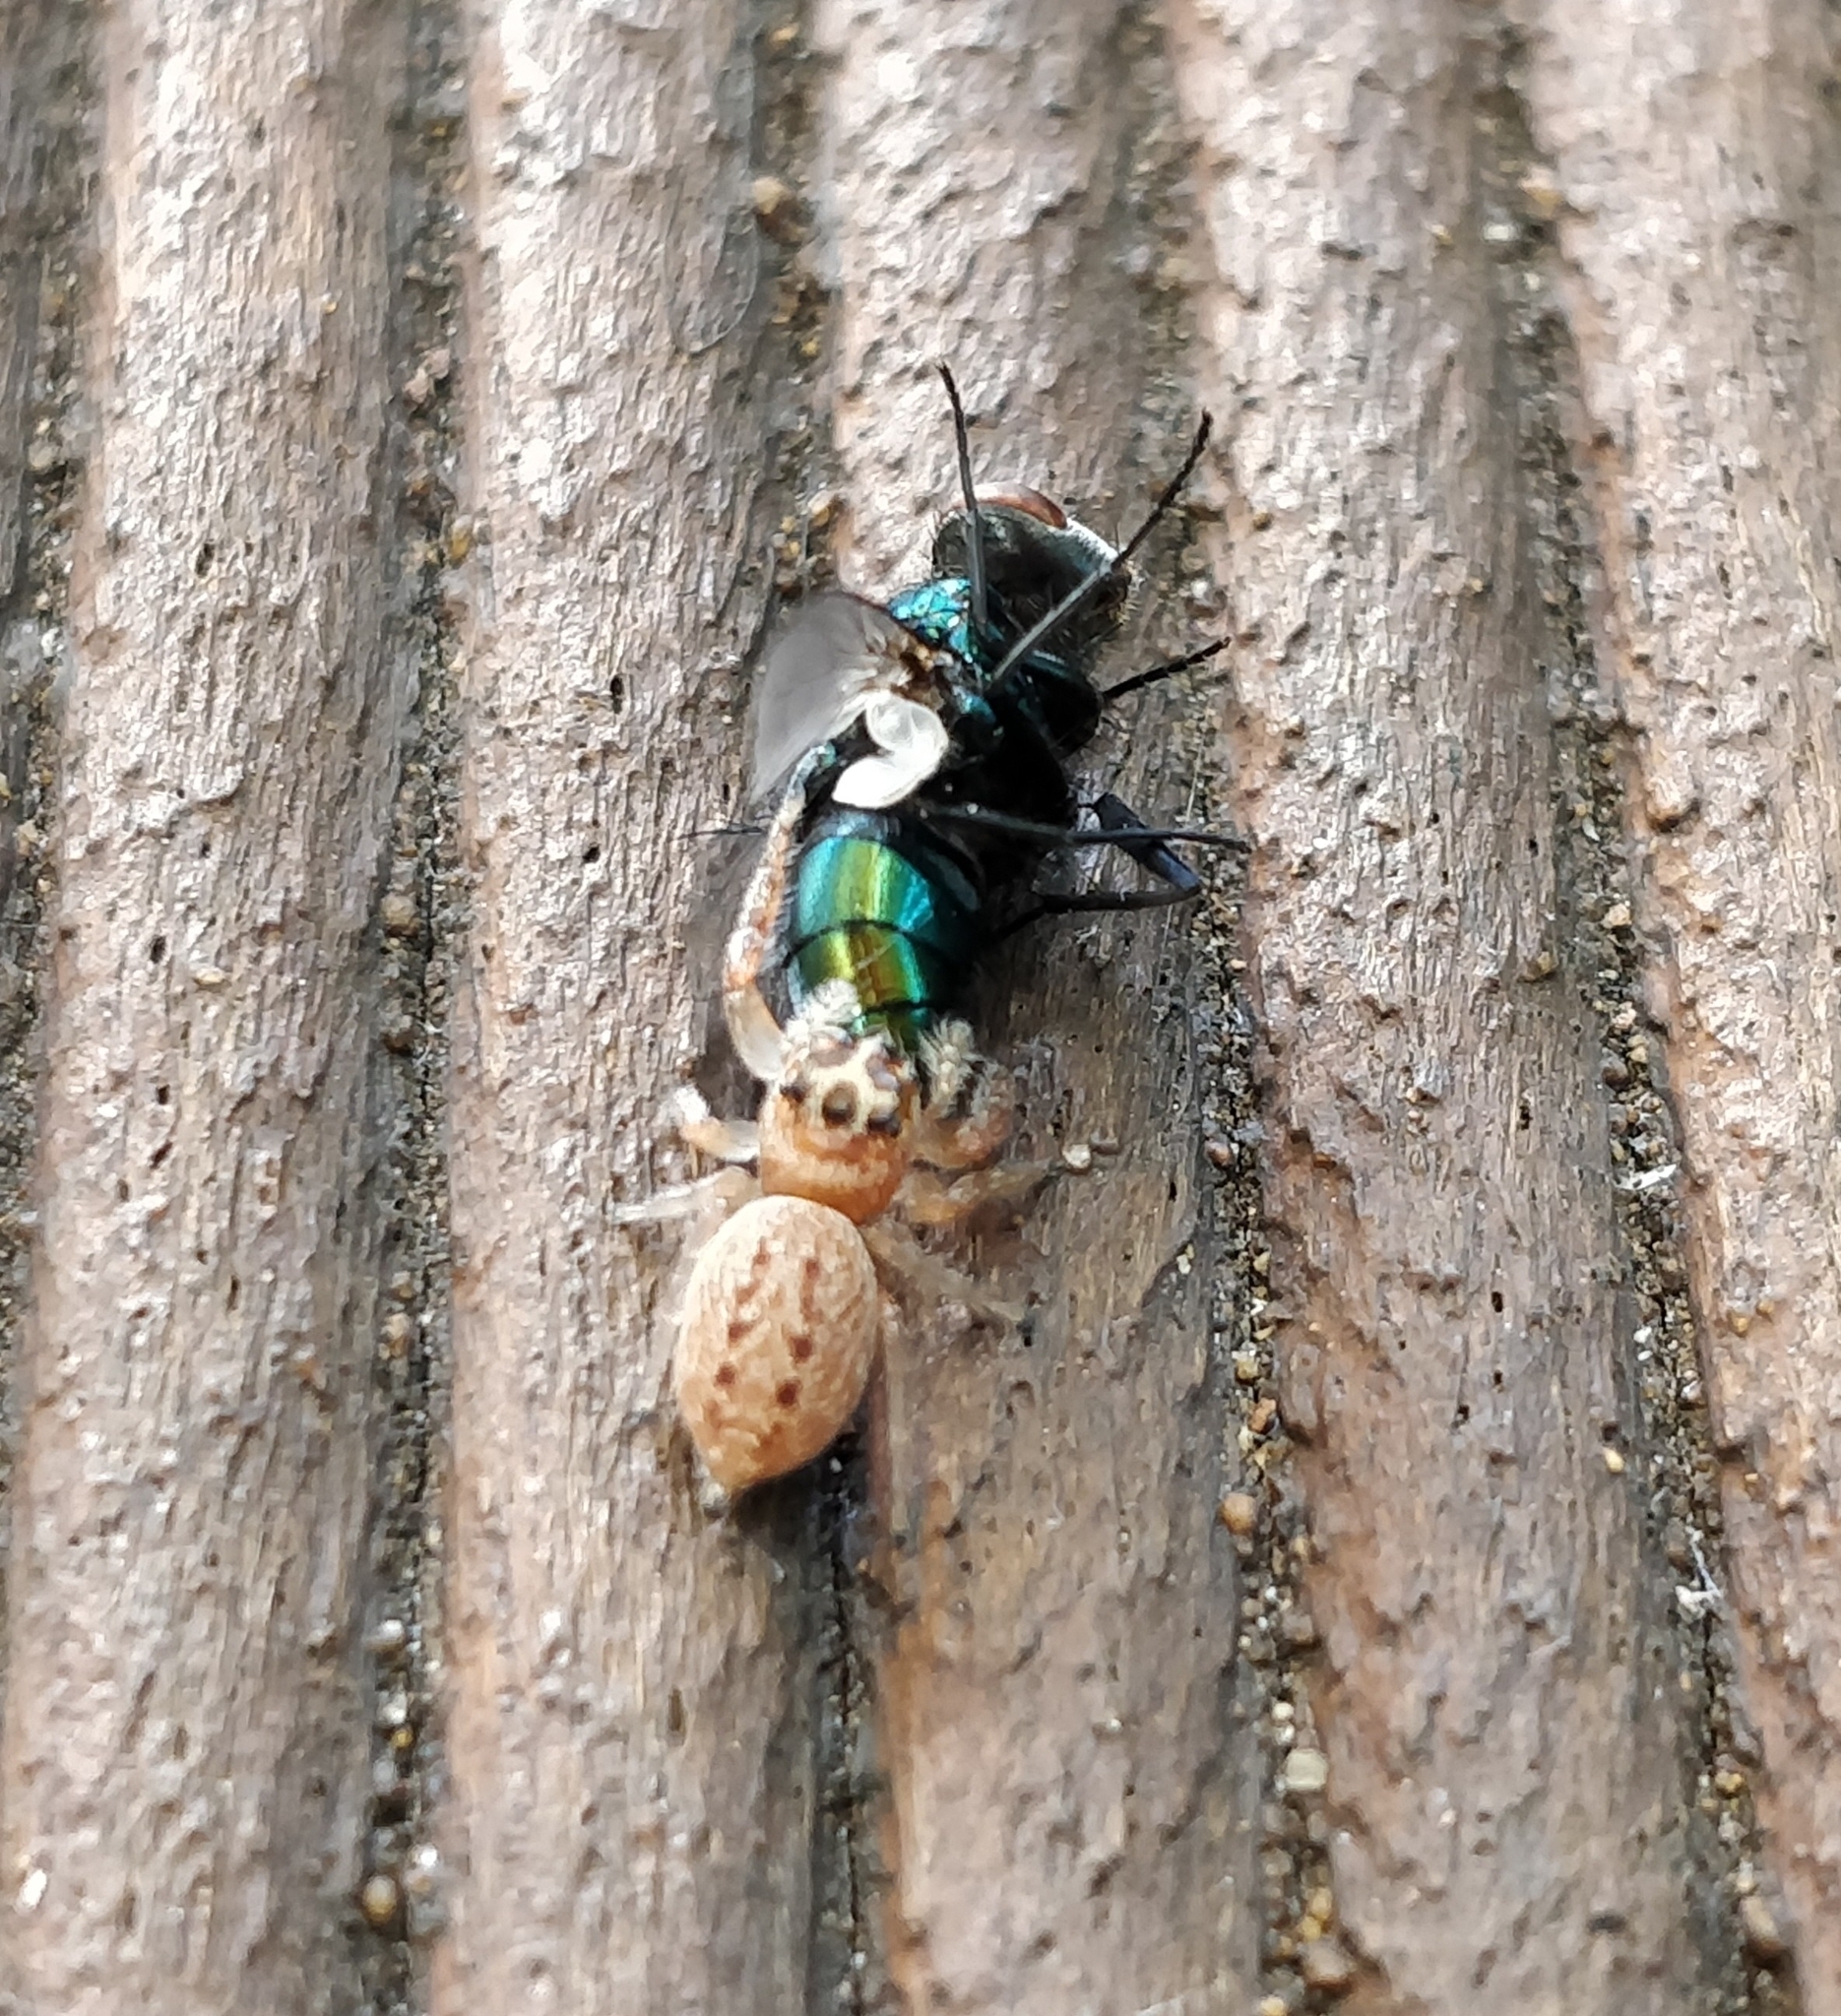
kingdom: Animalia
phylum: Arthropoda
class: Arachnida
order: Araneae
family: Salticidae
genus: Opisthoncus
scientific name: Opisthoncus polyphemus
